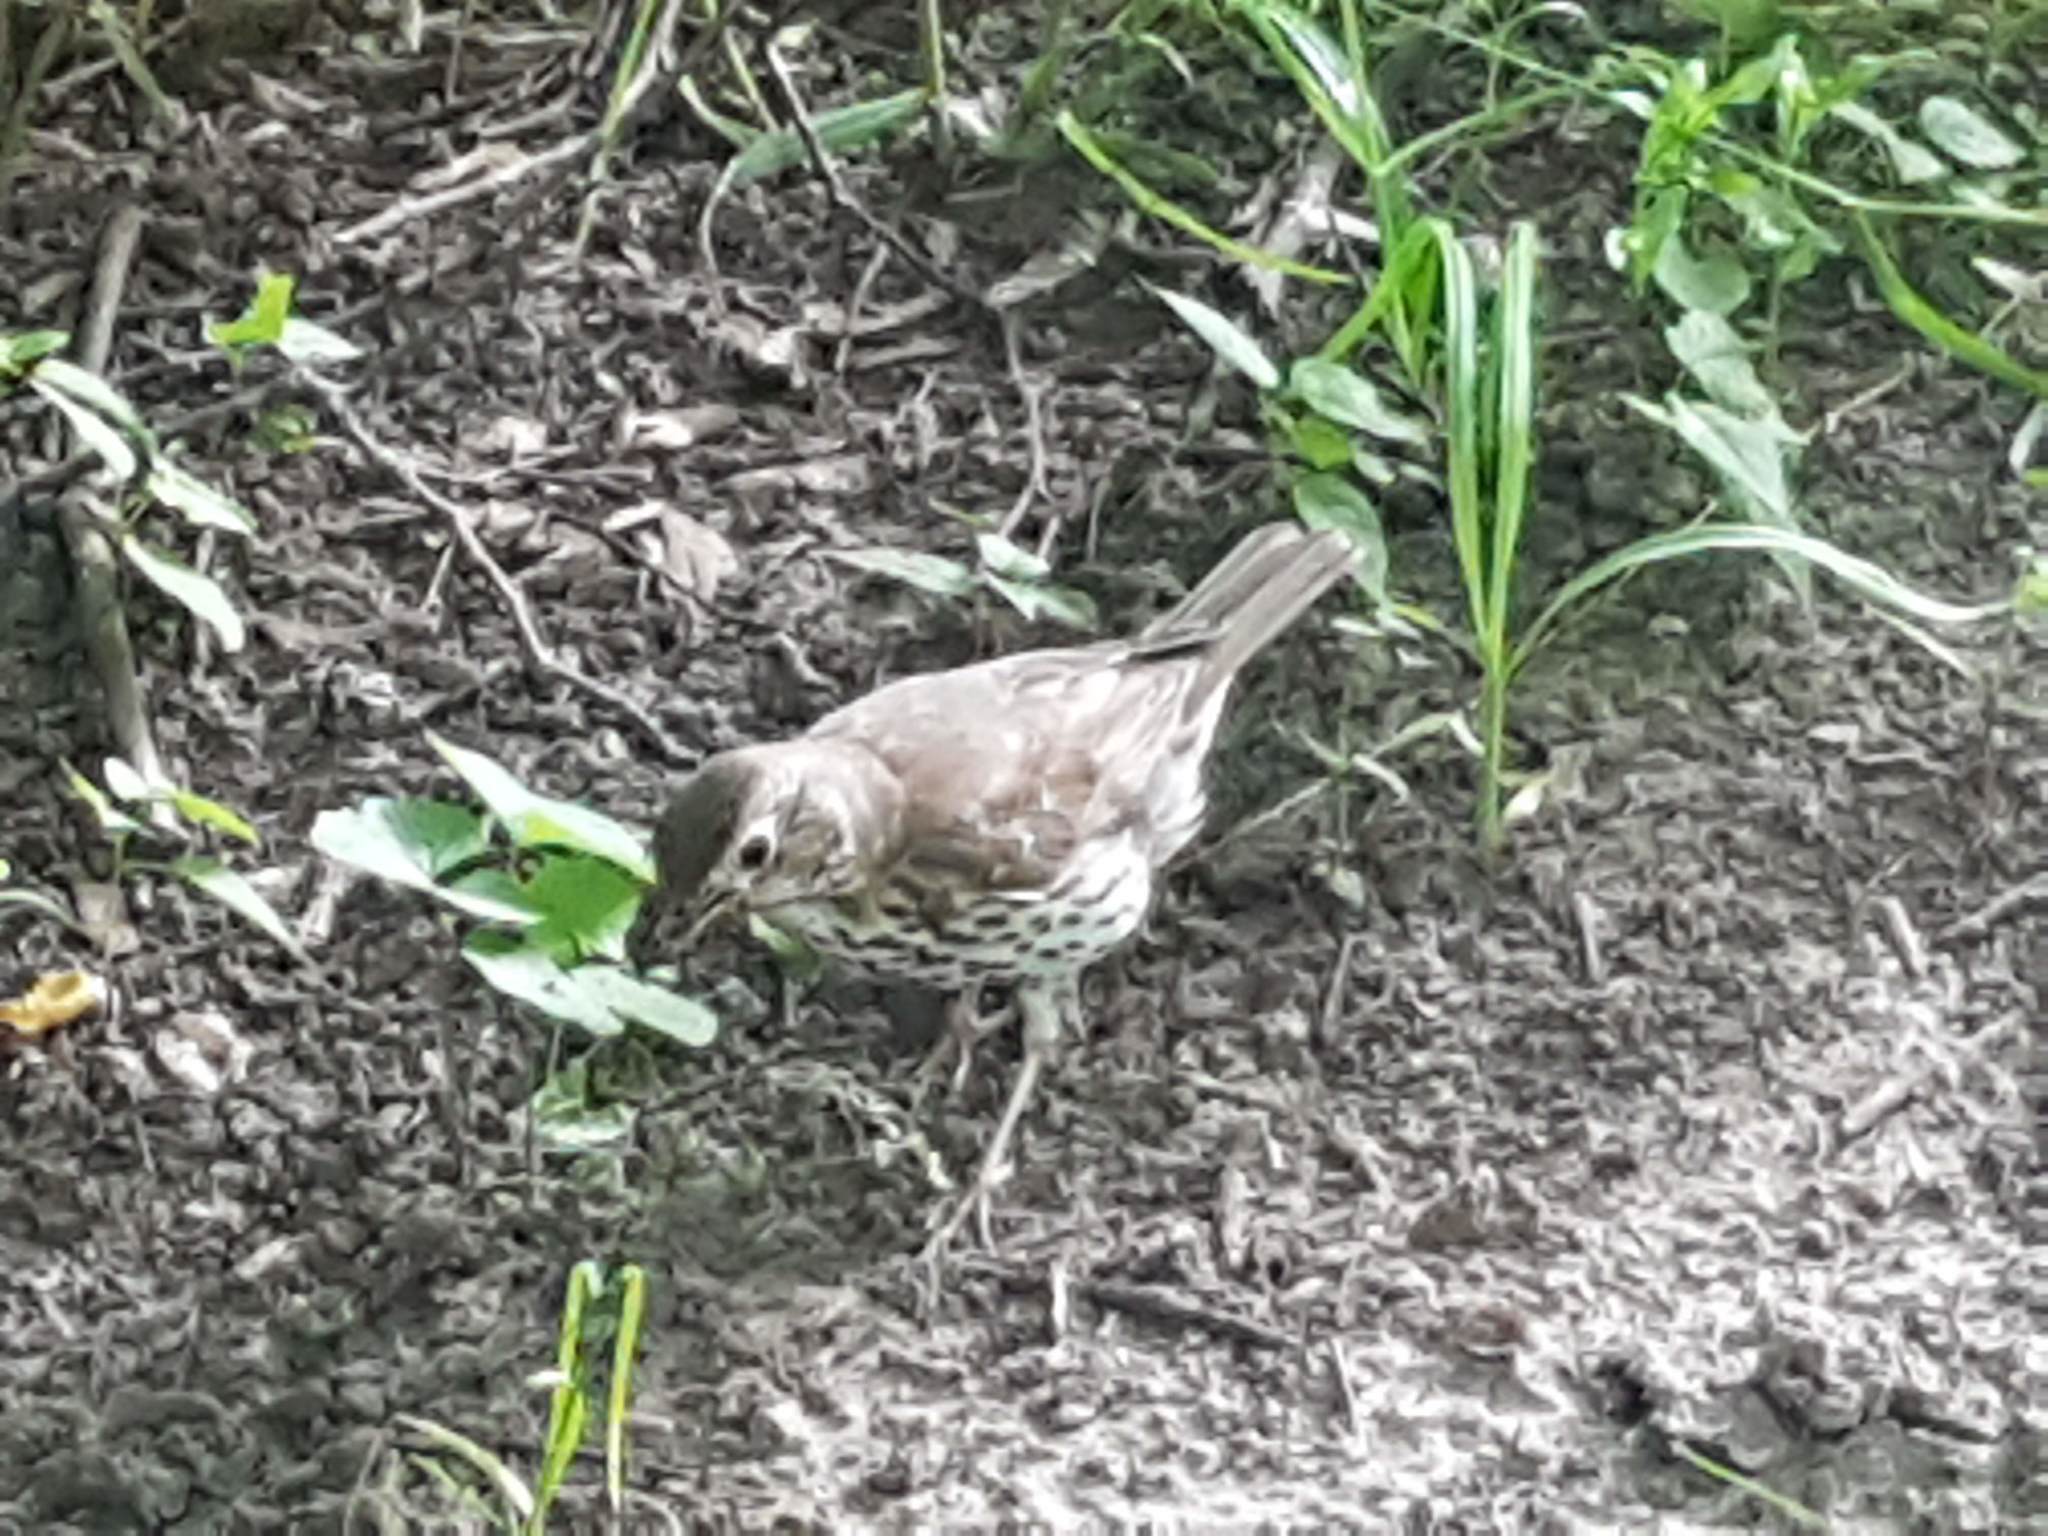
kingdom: Animalia
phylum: Chordata
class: Aves
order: Passeriformes
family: Turdidae
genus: Turdus
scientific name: Turdus philomelos
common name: Song thrush
